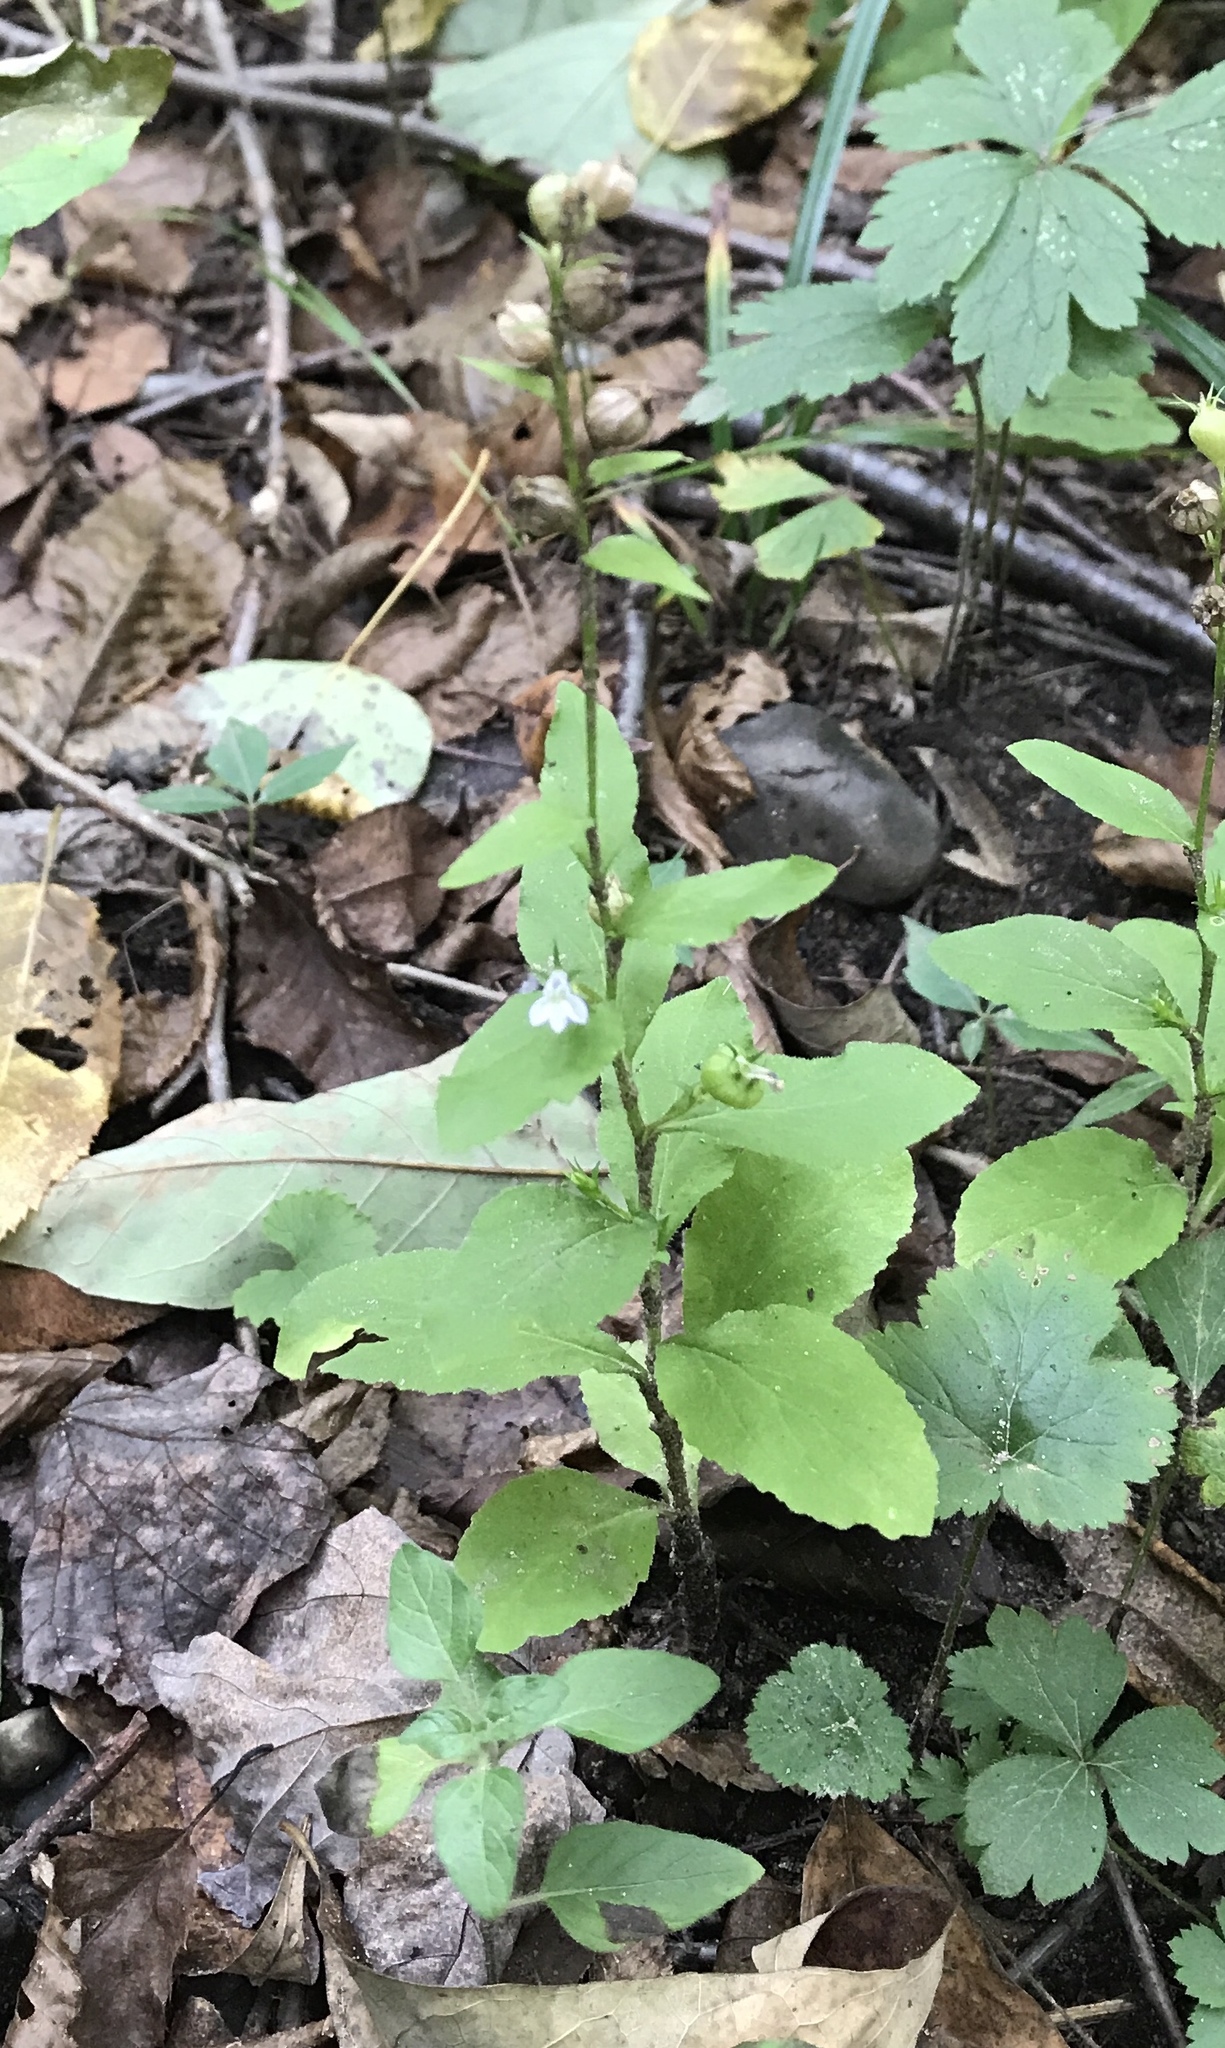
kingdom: Plantae
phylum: Tracheophyta
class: Magnoliopsida
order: Asterales
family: Campanulaceae
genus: Lobelia
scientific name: Lobelia inflata
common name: Indian tobacco
